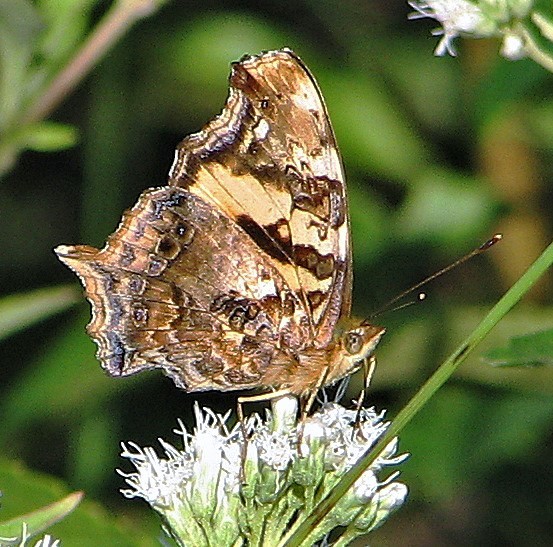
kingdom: Animalia
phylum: Arthropoda
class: Insecta
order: Lepidoptera
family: Nymphalidae
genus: Hypanartia
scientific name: Hypanartia bella
